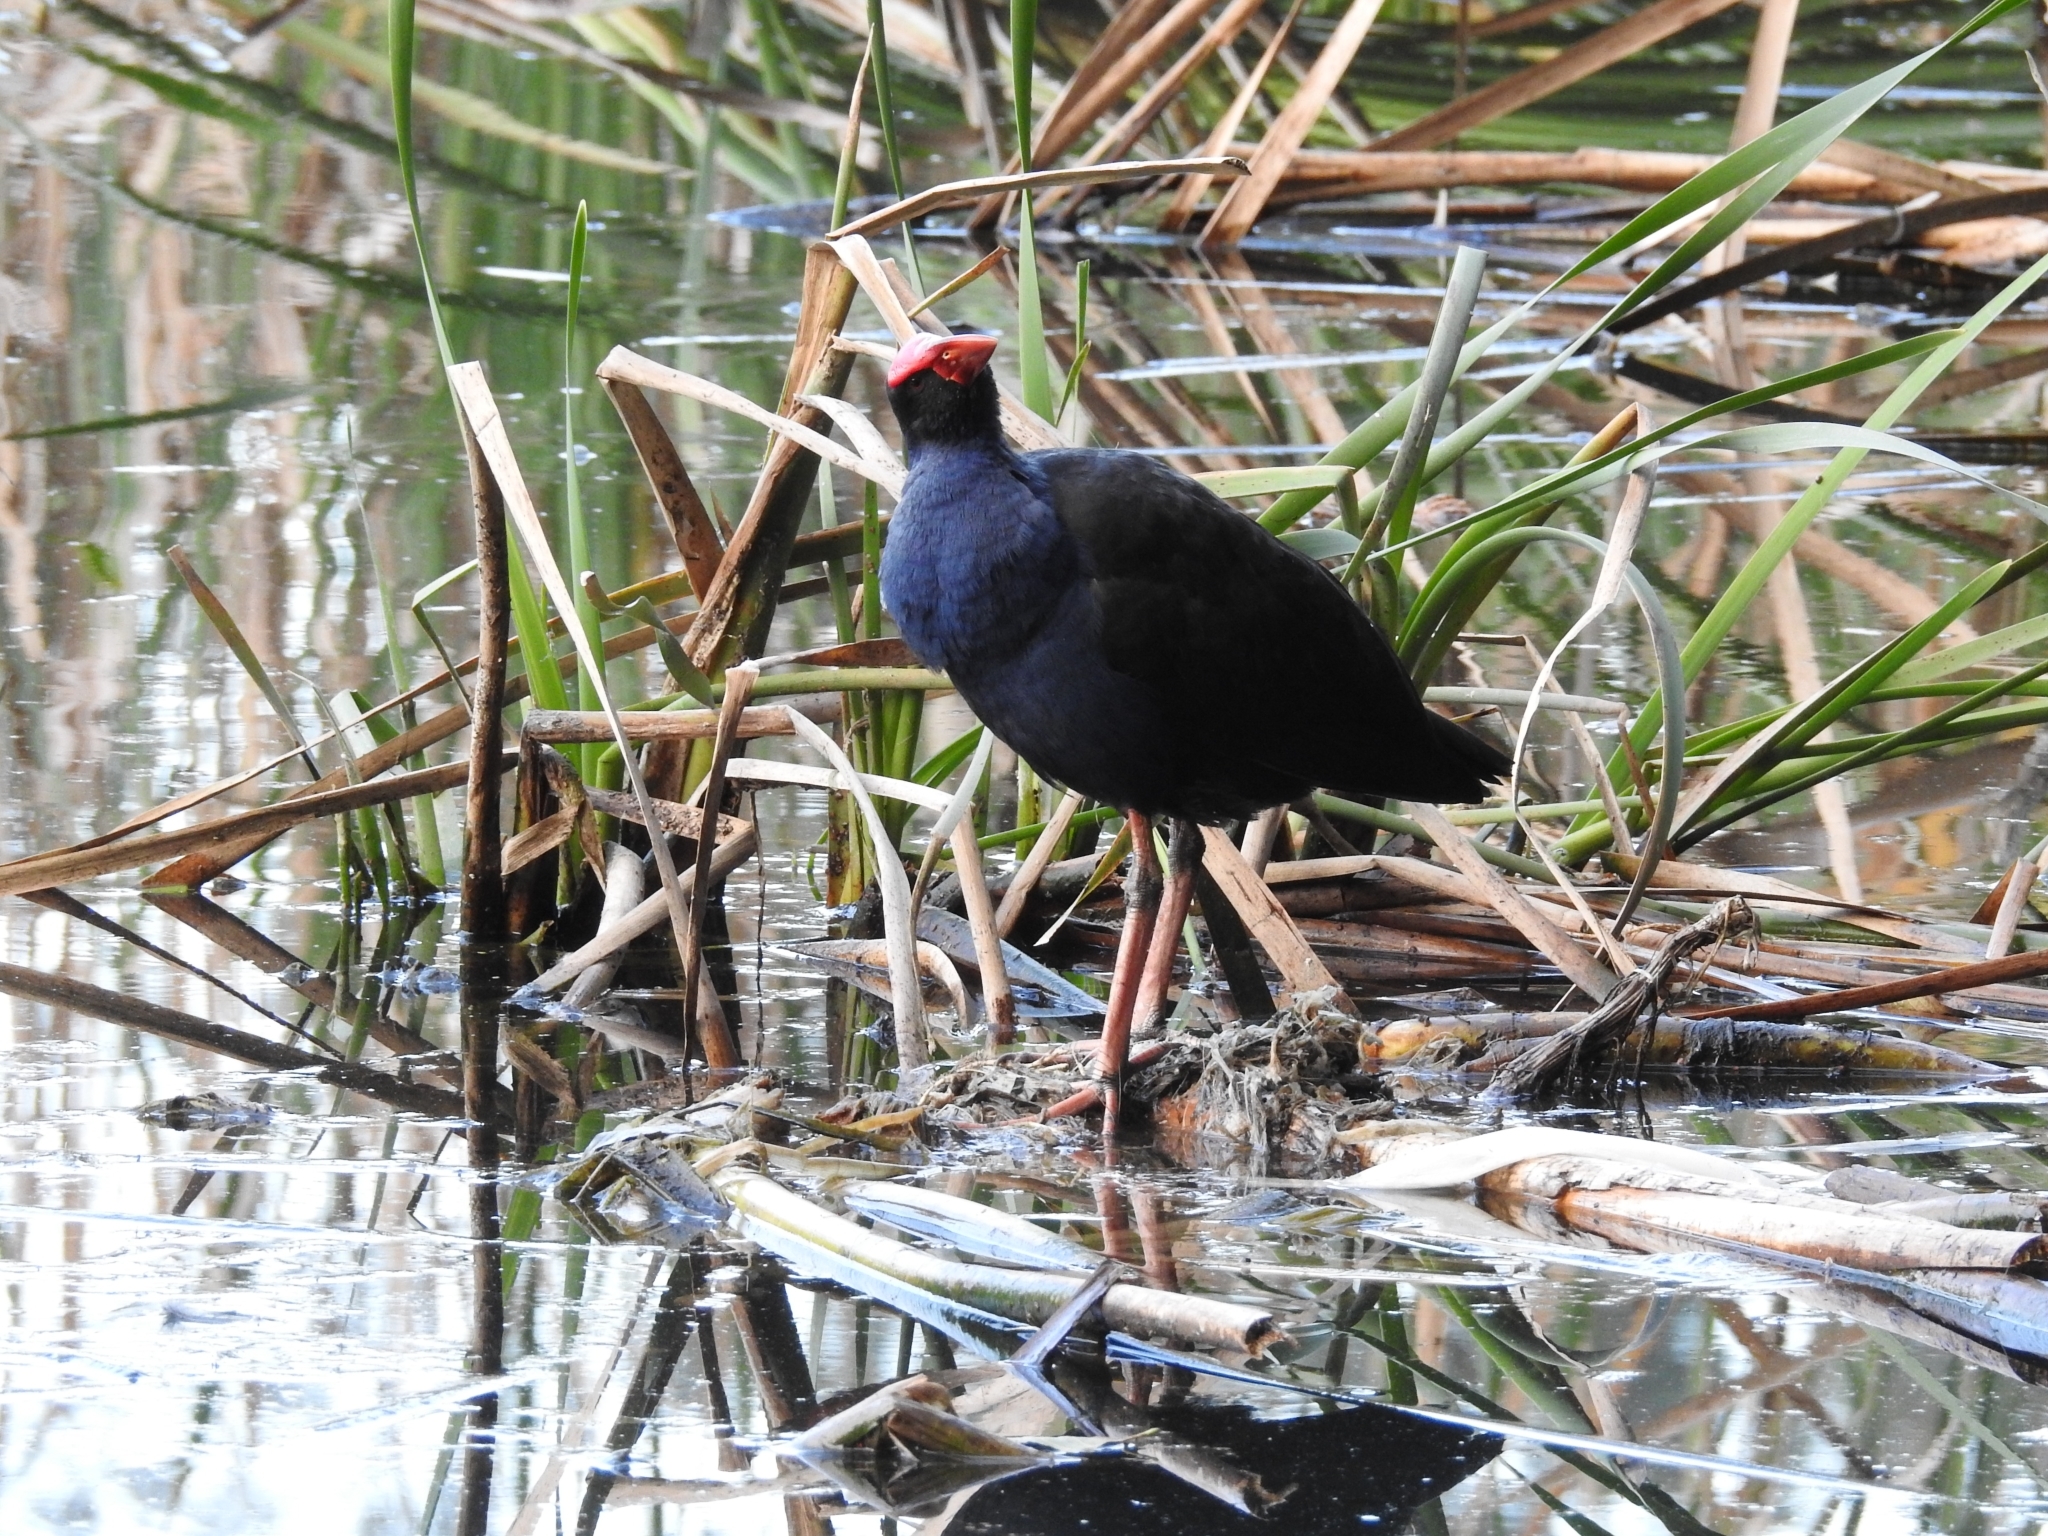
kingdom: Animalia
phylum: Chordata
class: Aves
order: Gruiformes
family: Rallidae
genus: Porphyrio
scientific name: Porphyrio melanotus
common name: Australasian swamphen
